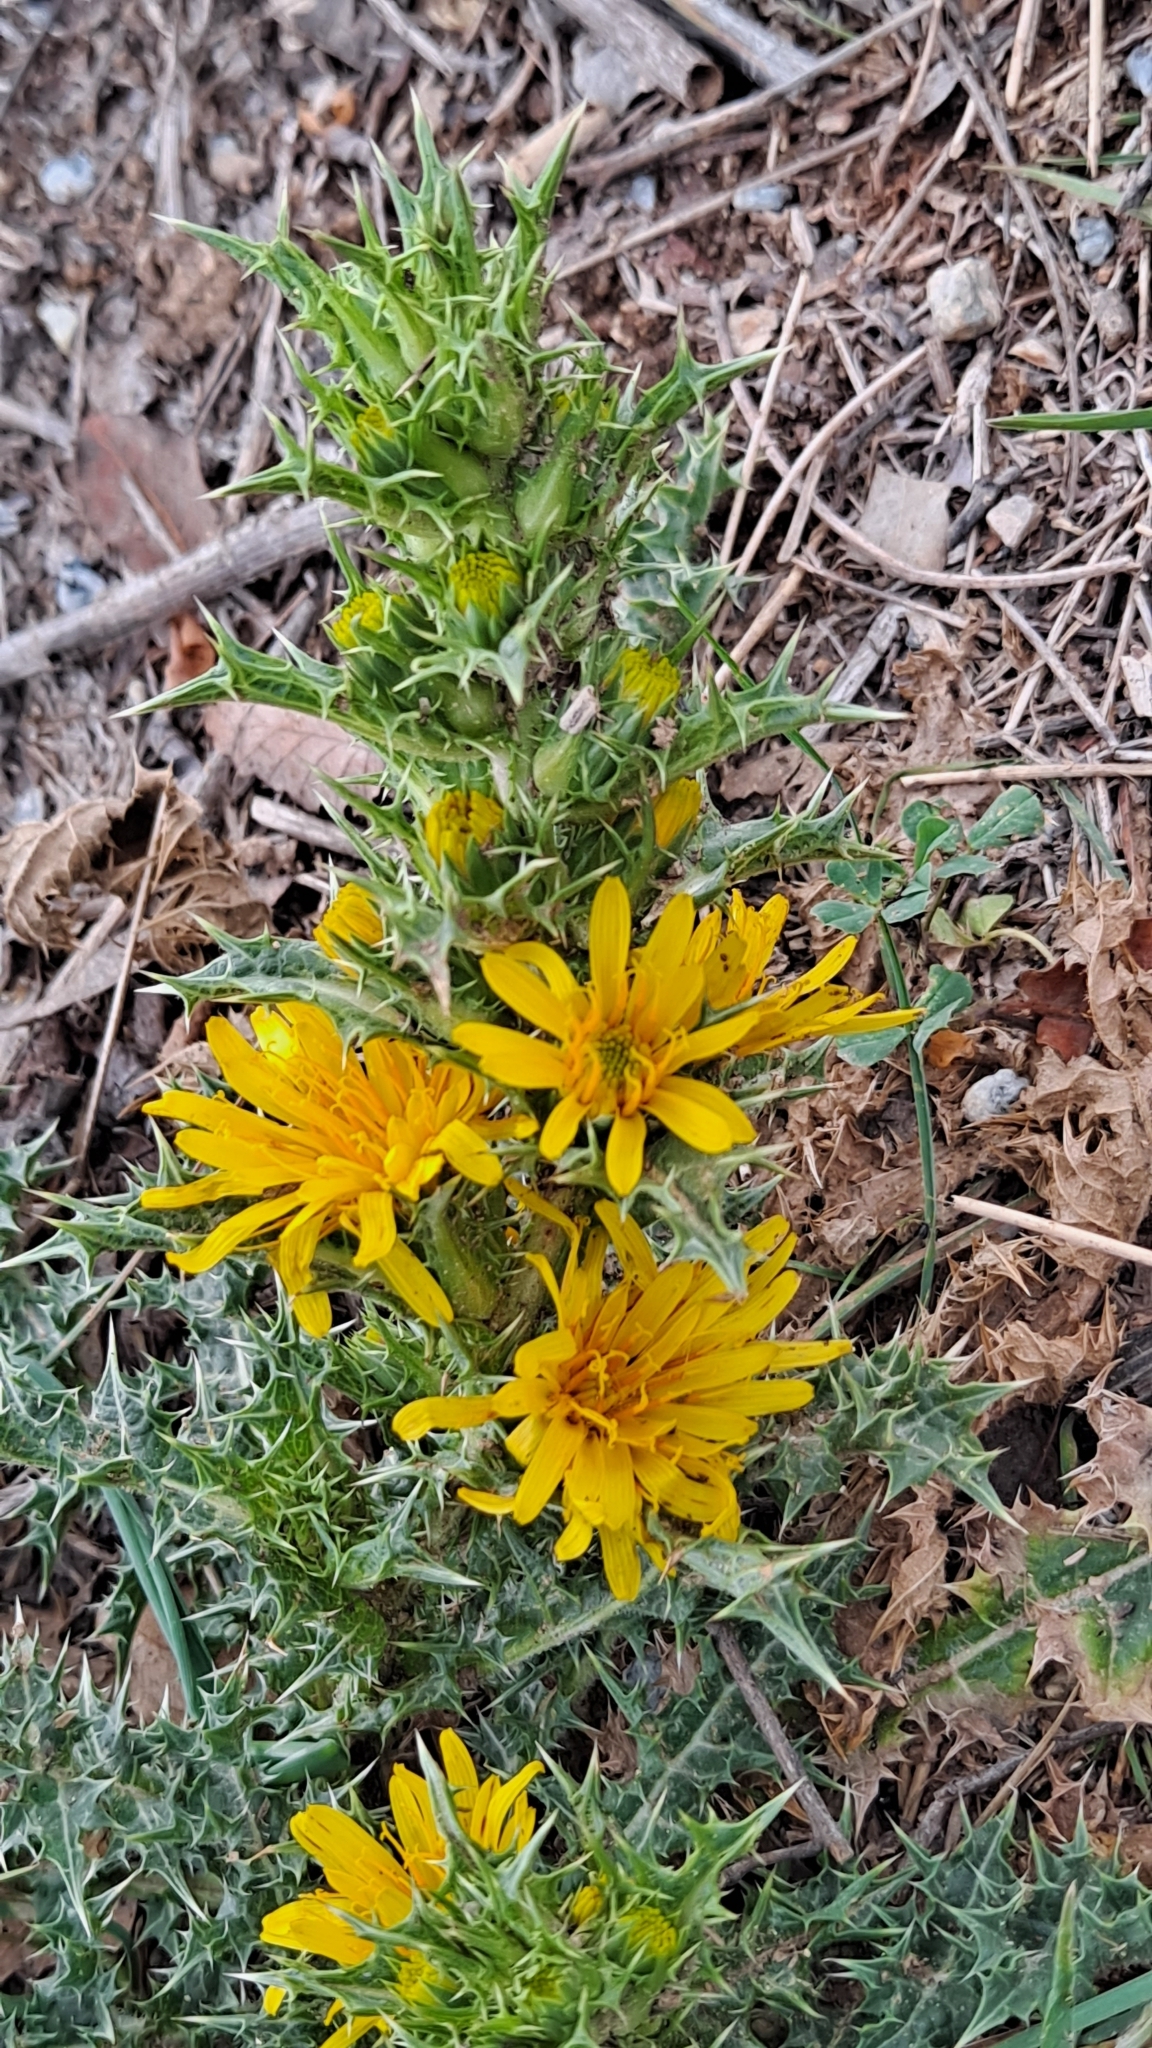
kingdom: Plantae
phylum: Tracheophyta
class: Magnoliopsida
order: Asterales
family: Asteraceae
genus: Scolymus
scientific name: Scolymus hispanicus
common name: Golden thistle
